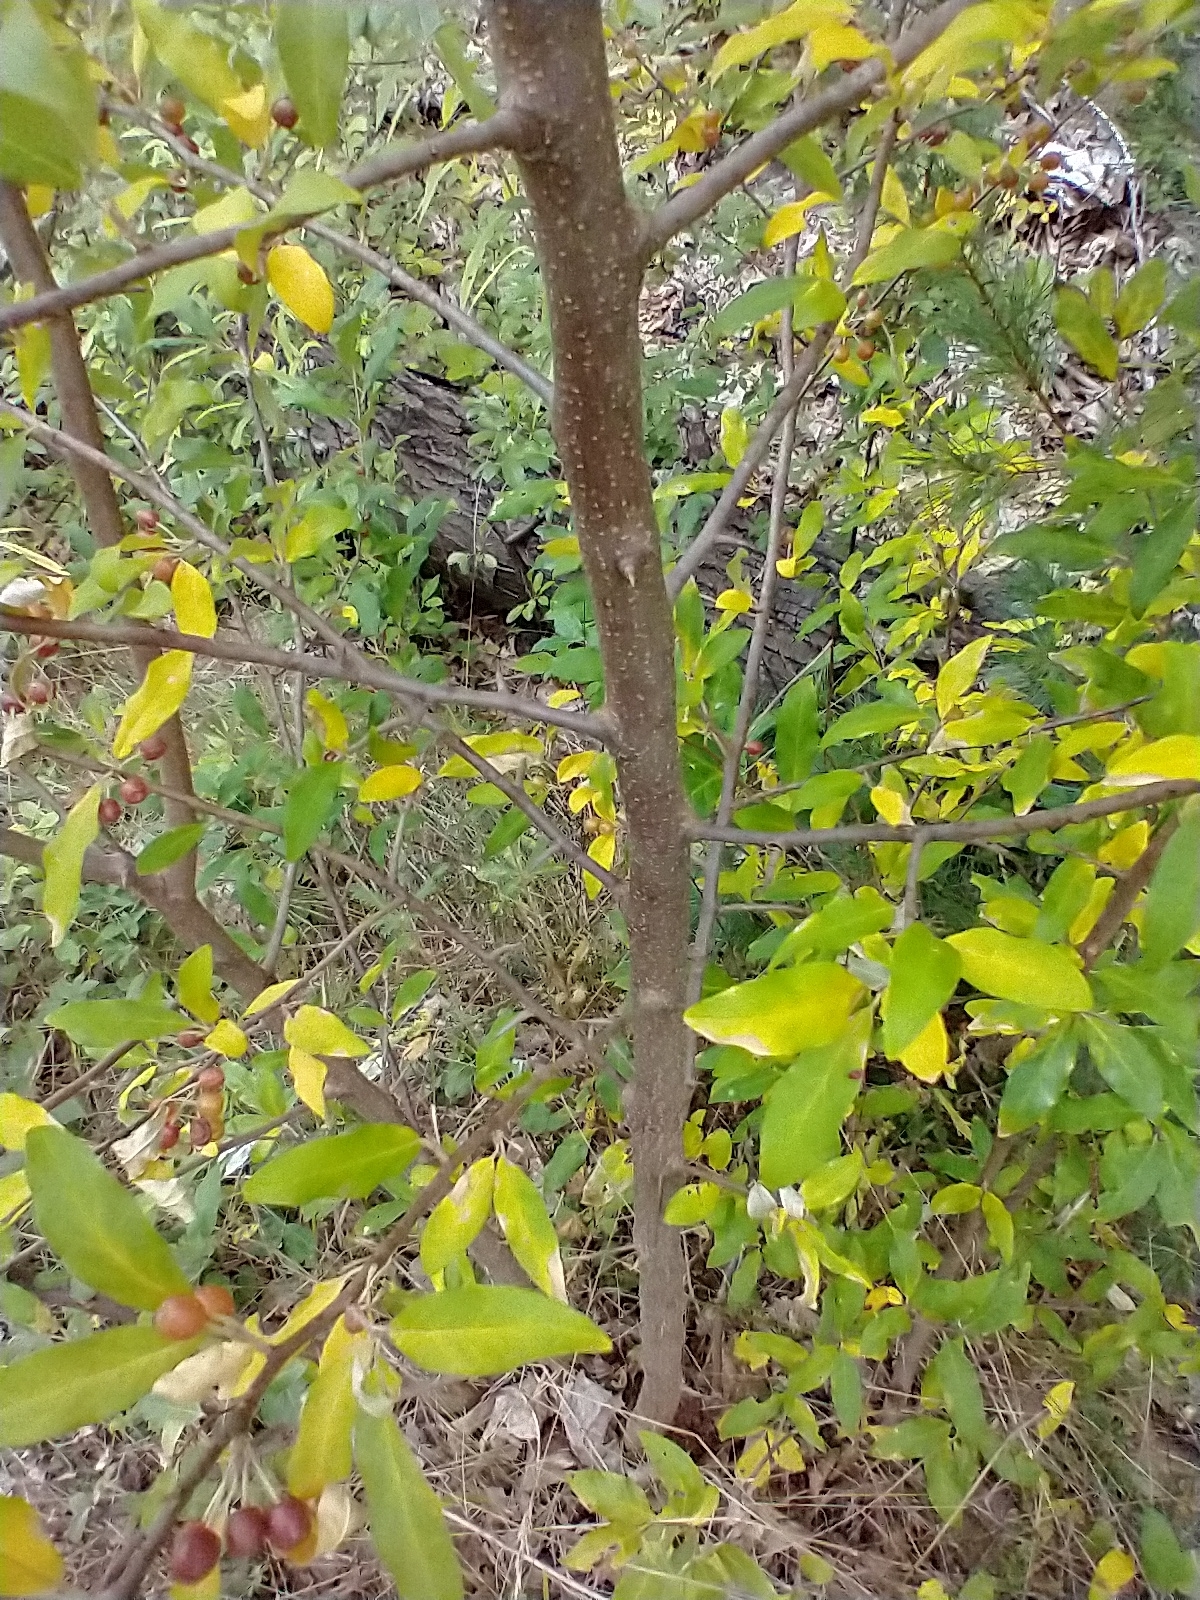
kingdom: Plantae
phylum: Tracheophyta
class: Magnoliopsida
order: Rosales
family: Elaeagnaceae
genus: Elaeagnus
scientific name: Elaeagnus umbellata
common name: Autumn olive
